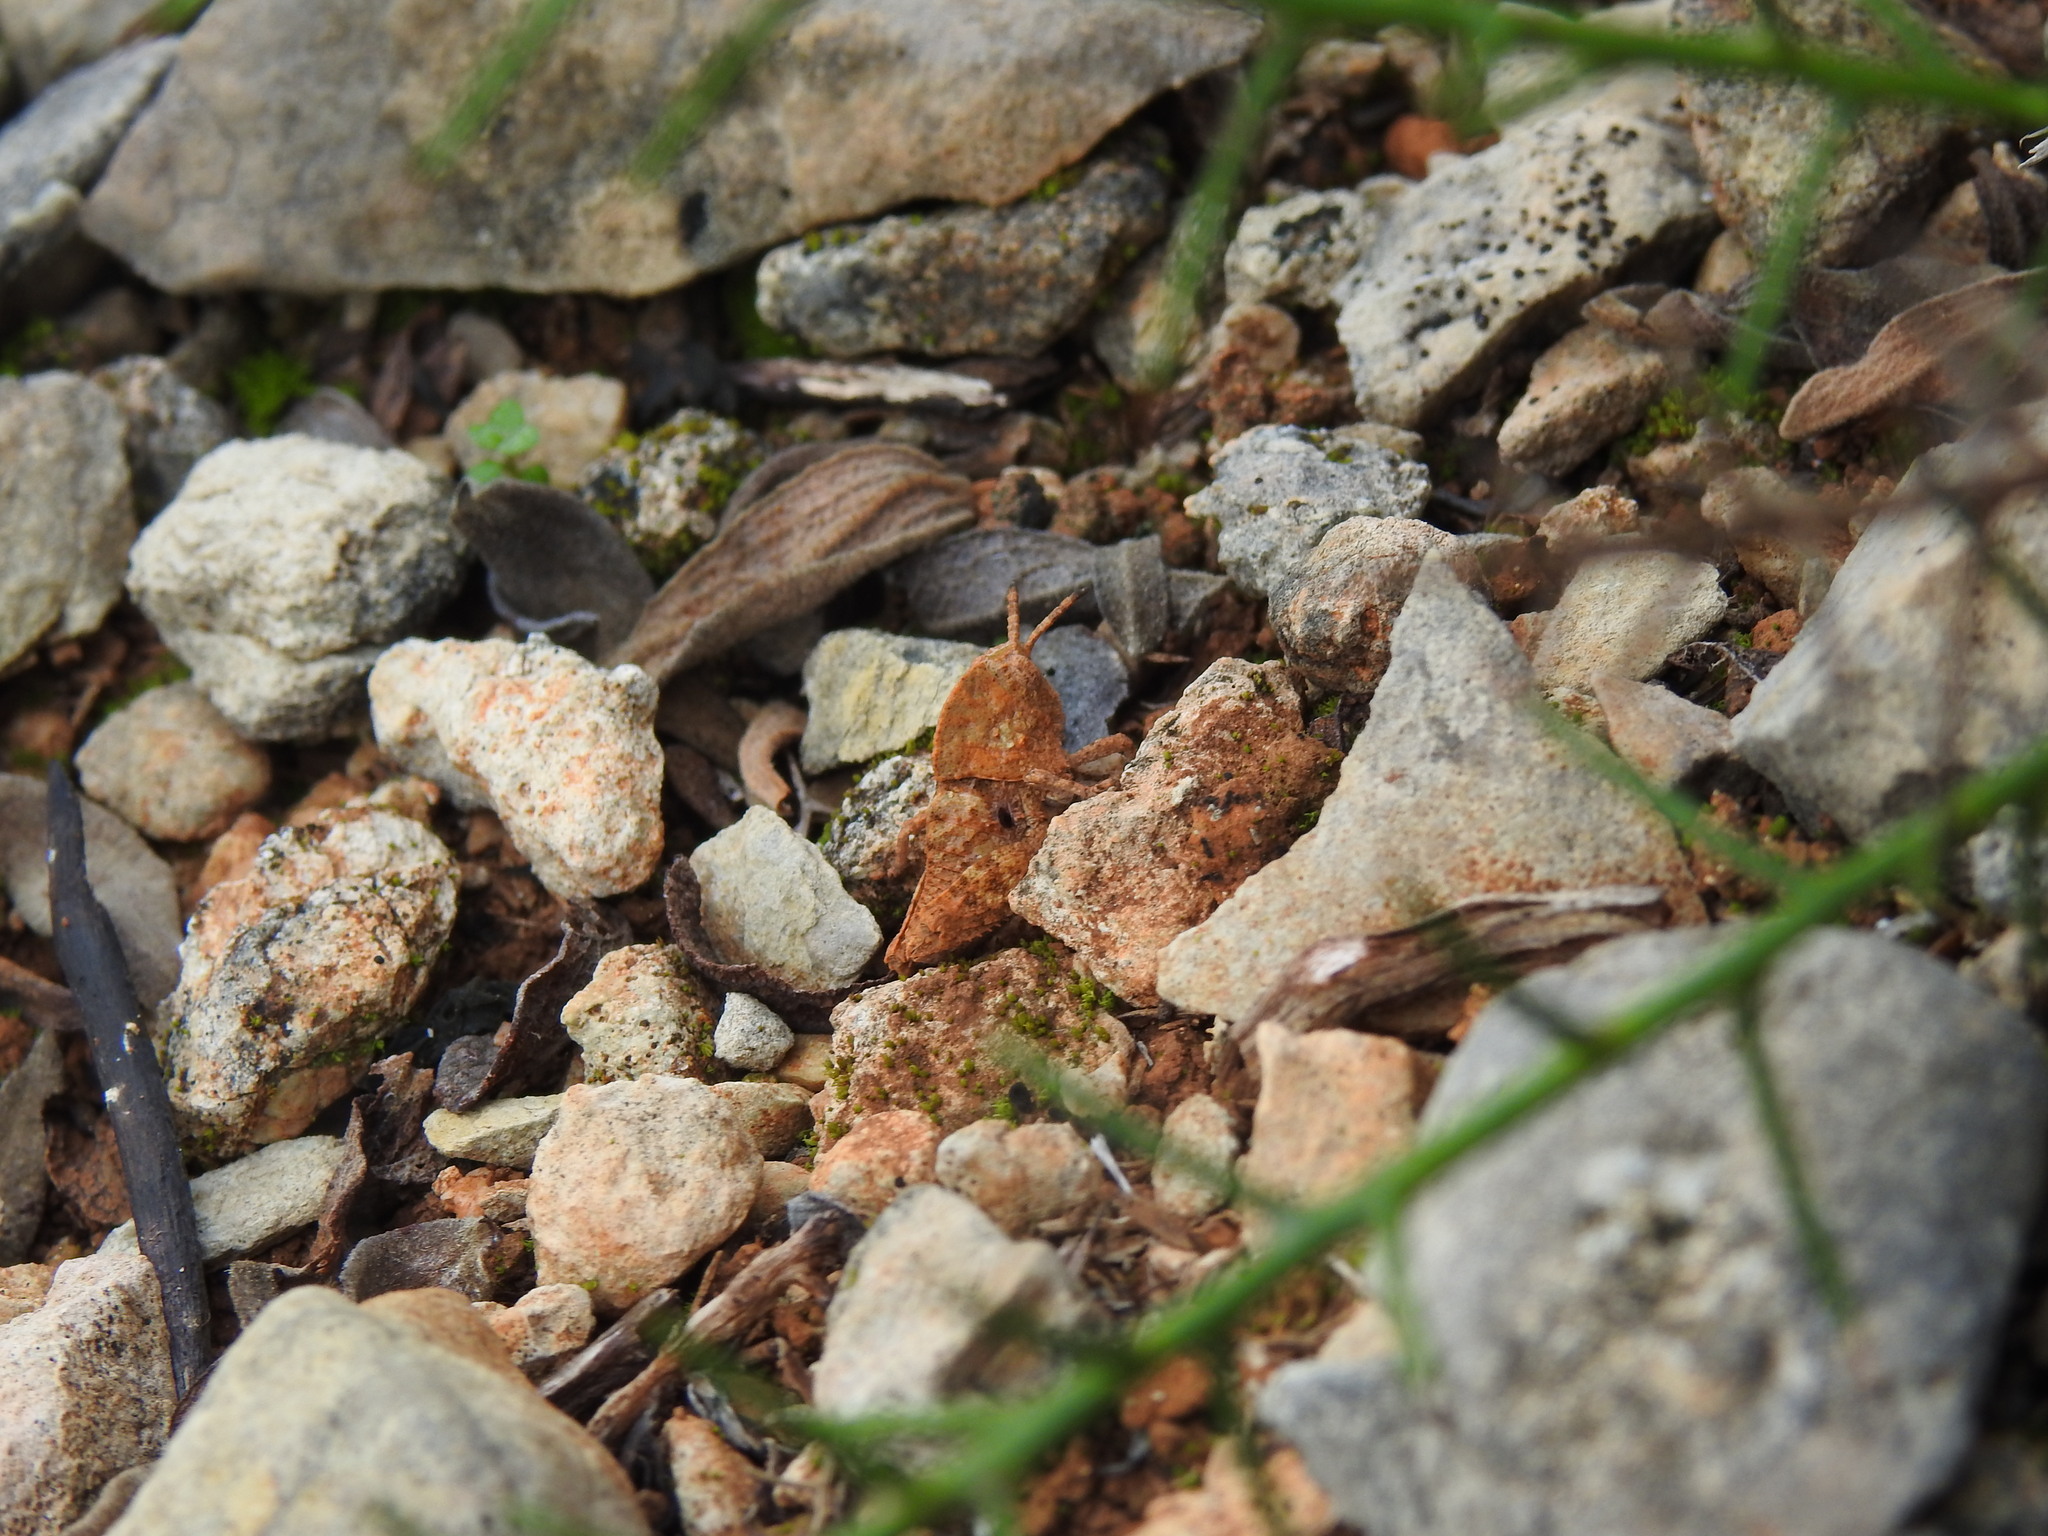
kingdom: Animalia
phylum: Arthropoda
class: Insecta
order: Orthoptera
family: Pamphagidae
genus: Ocnerodes
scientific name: Ocnerodes fallaciosus
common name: Misleading stone grasshopper
